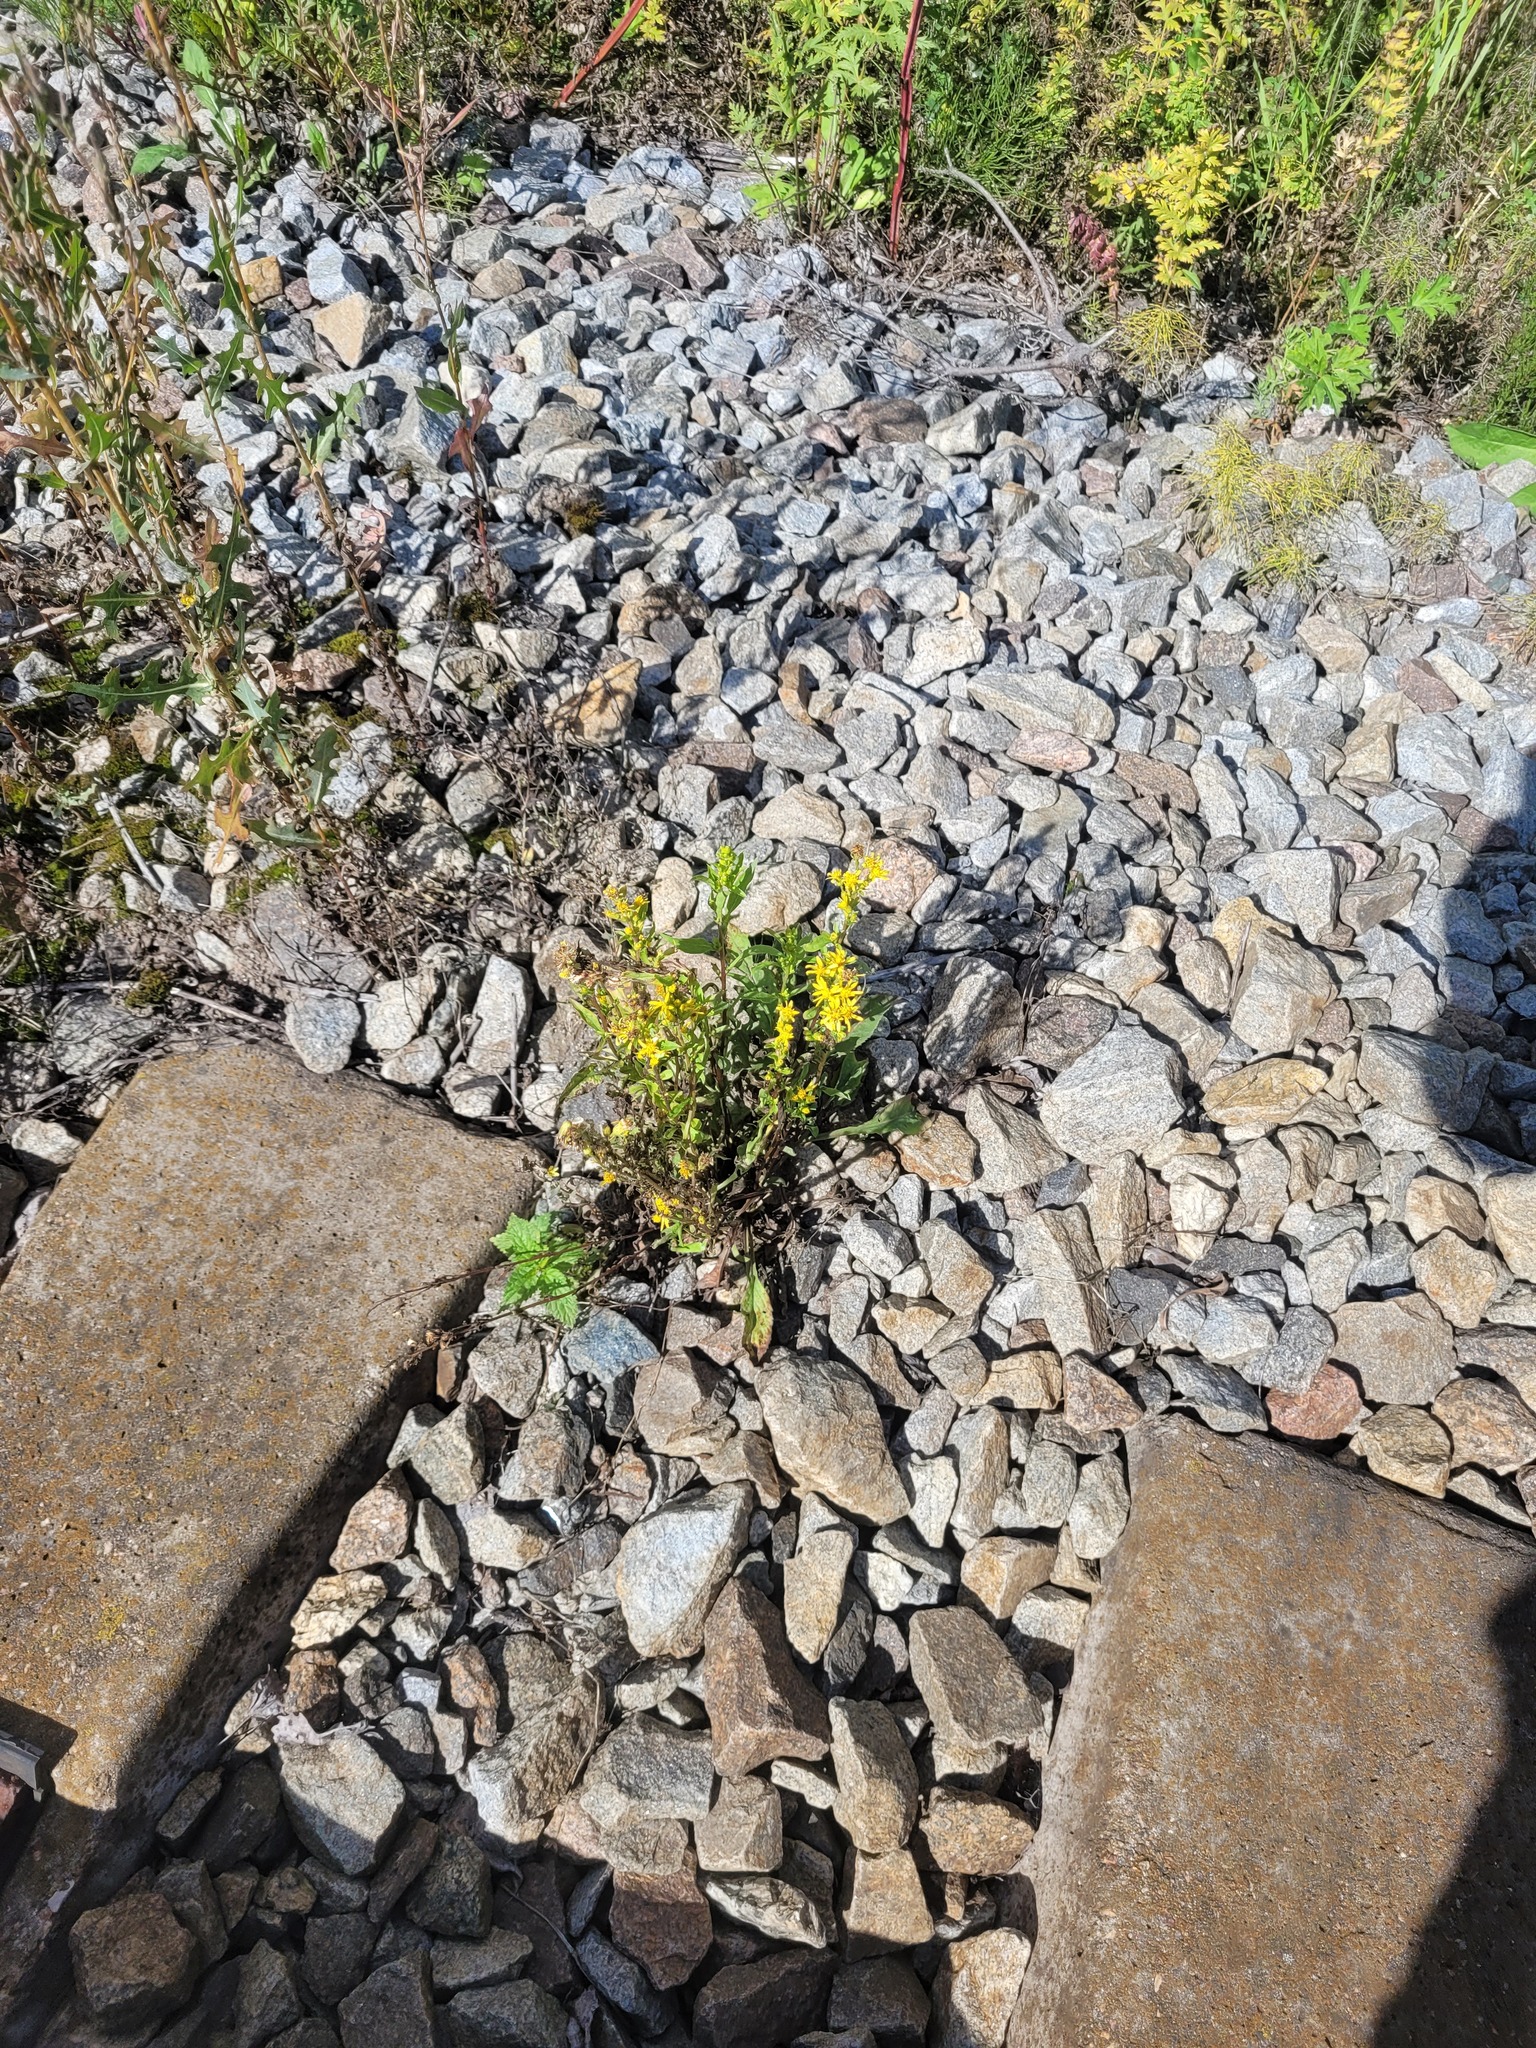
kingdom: Plantae
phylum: Tracheophyta
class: Magnoliopsida
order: Asterales
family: Asteraceae
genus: Solidago
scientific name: Solidago virgaurea
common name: Goldenrod
